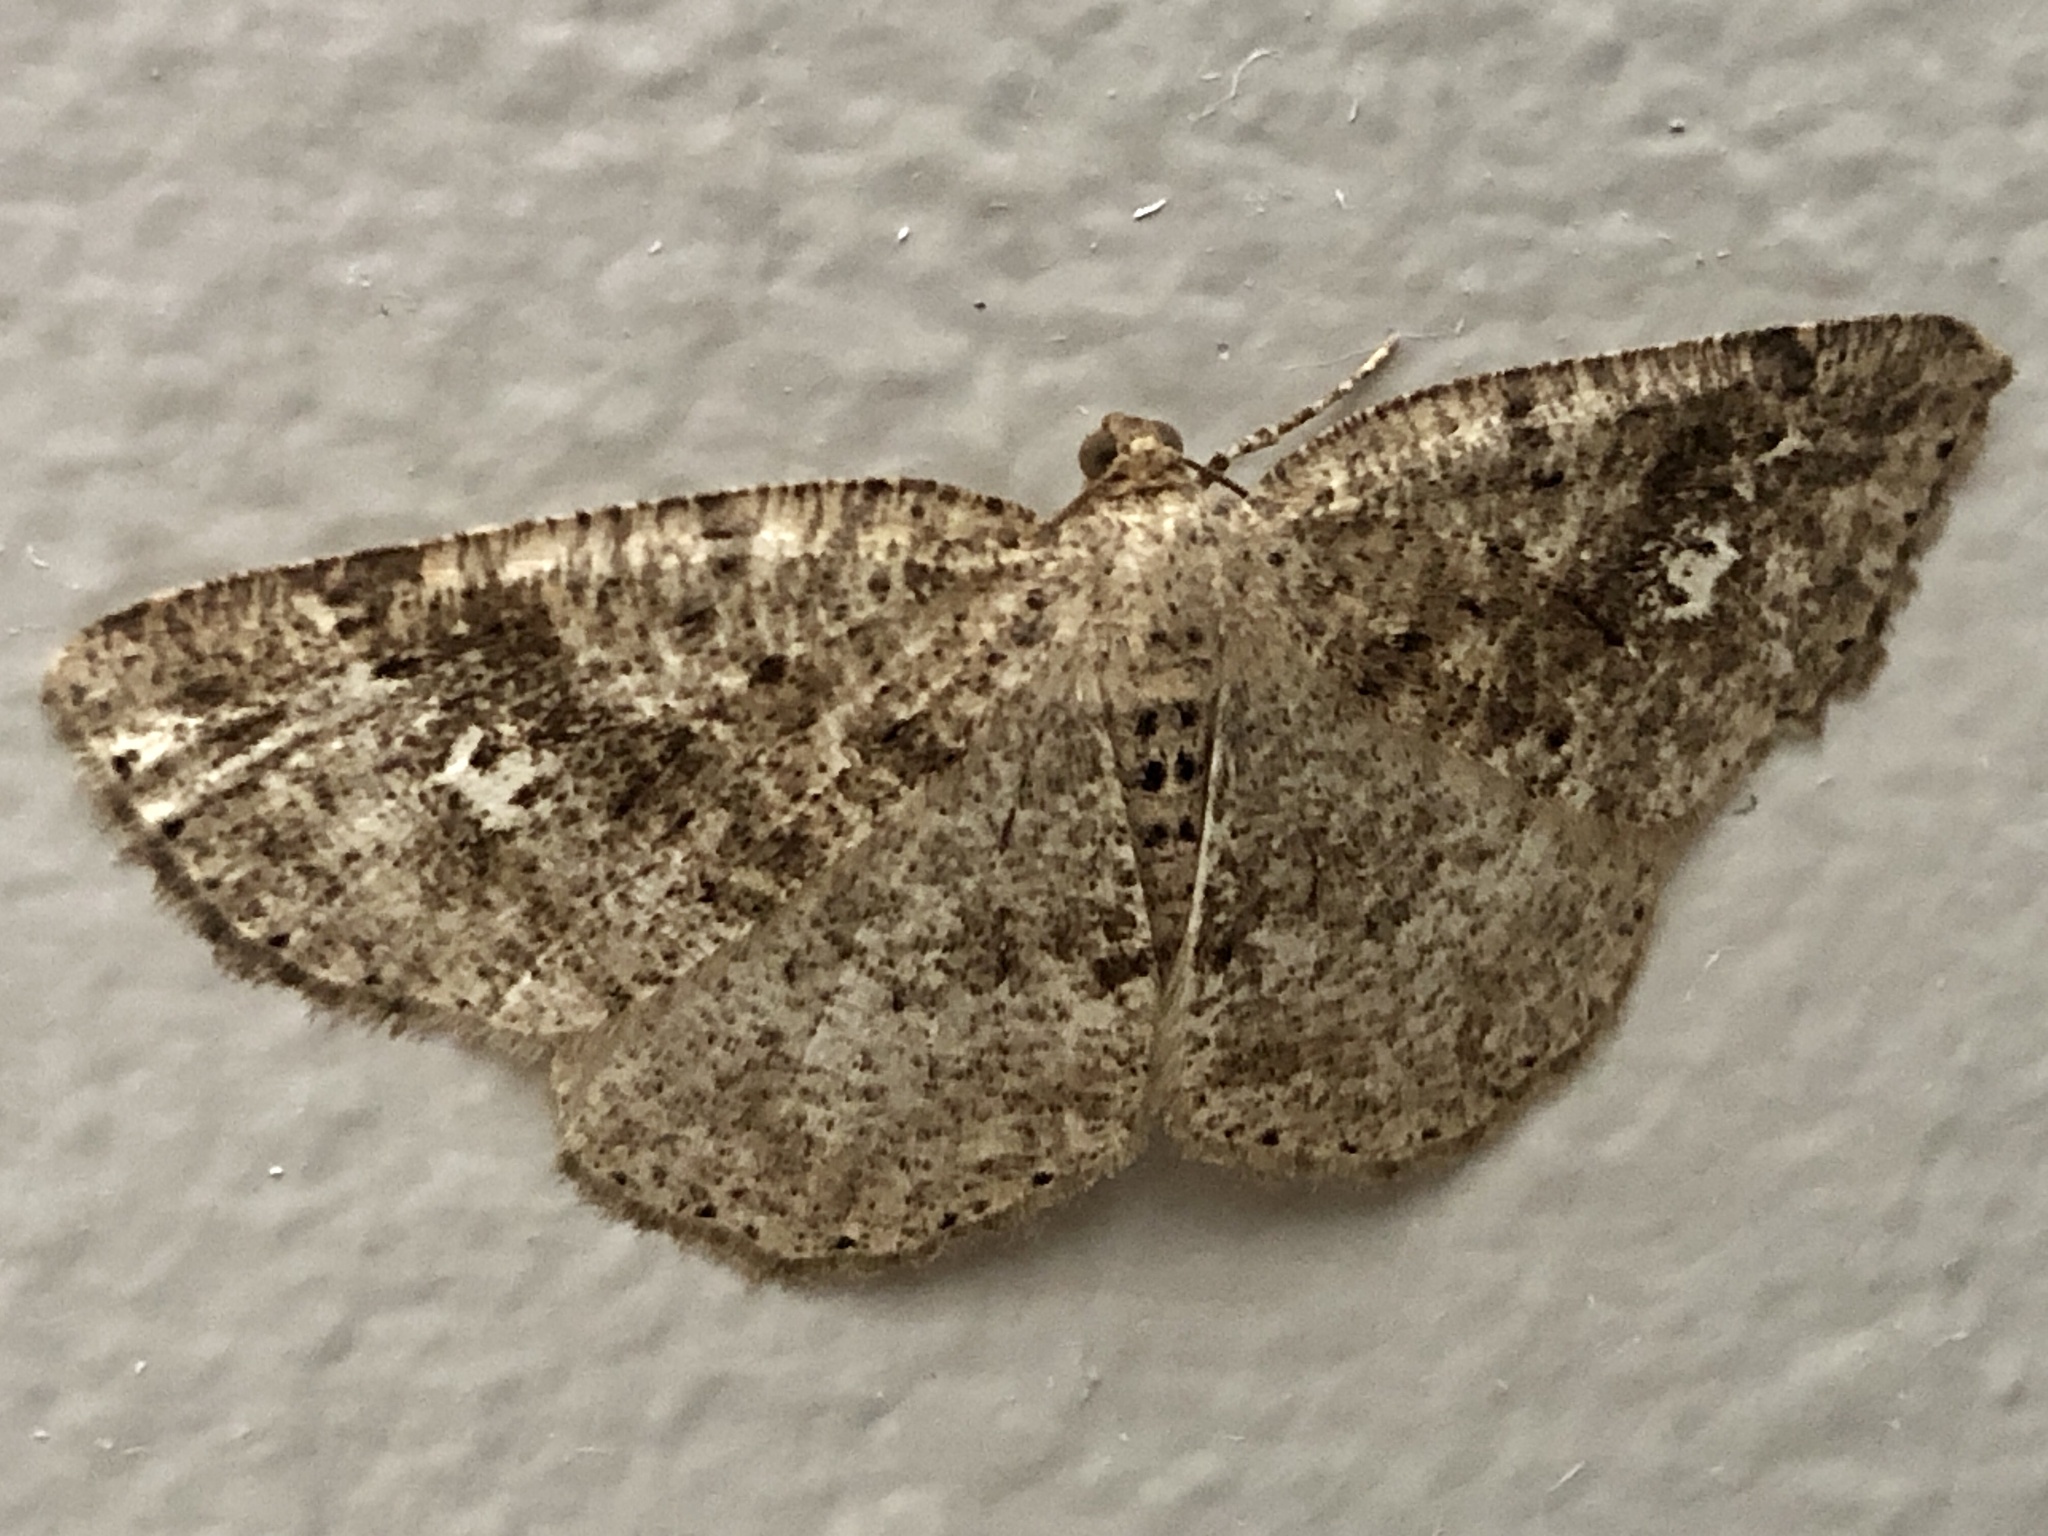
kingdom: Animalia
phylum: Arthropoda
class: Insecta
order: Lepidoptera
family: Geometridae
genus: Homochlodes
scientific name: Homochlodes fritillaria
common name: Pale homochlodes
